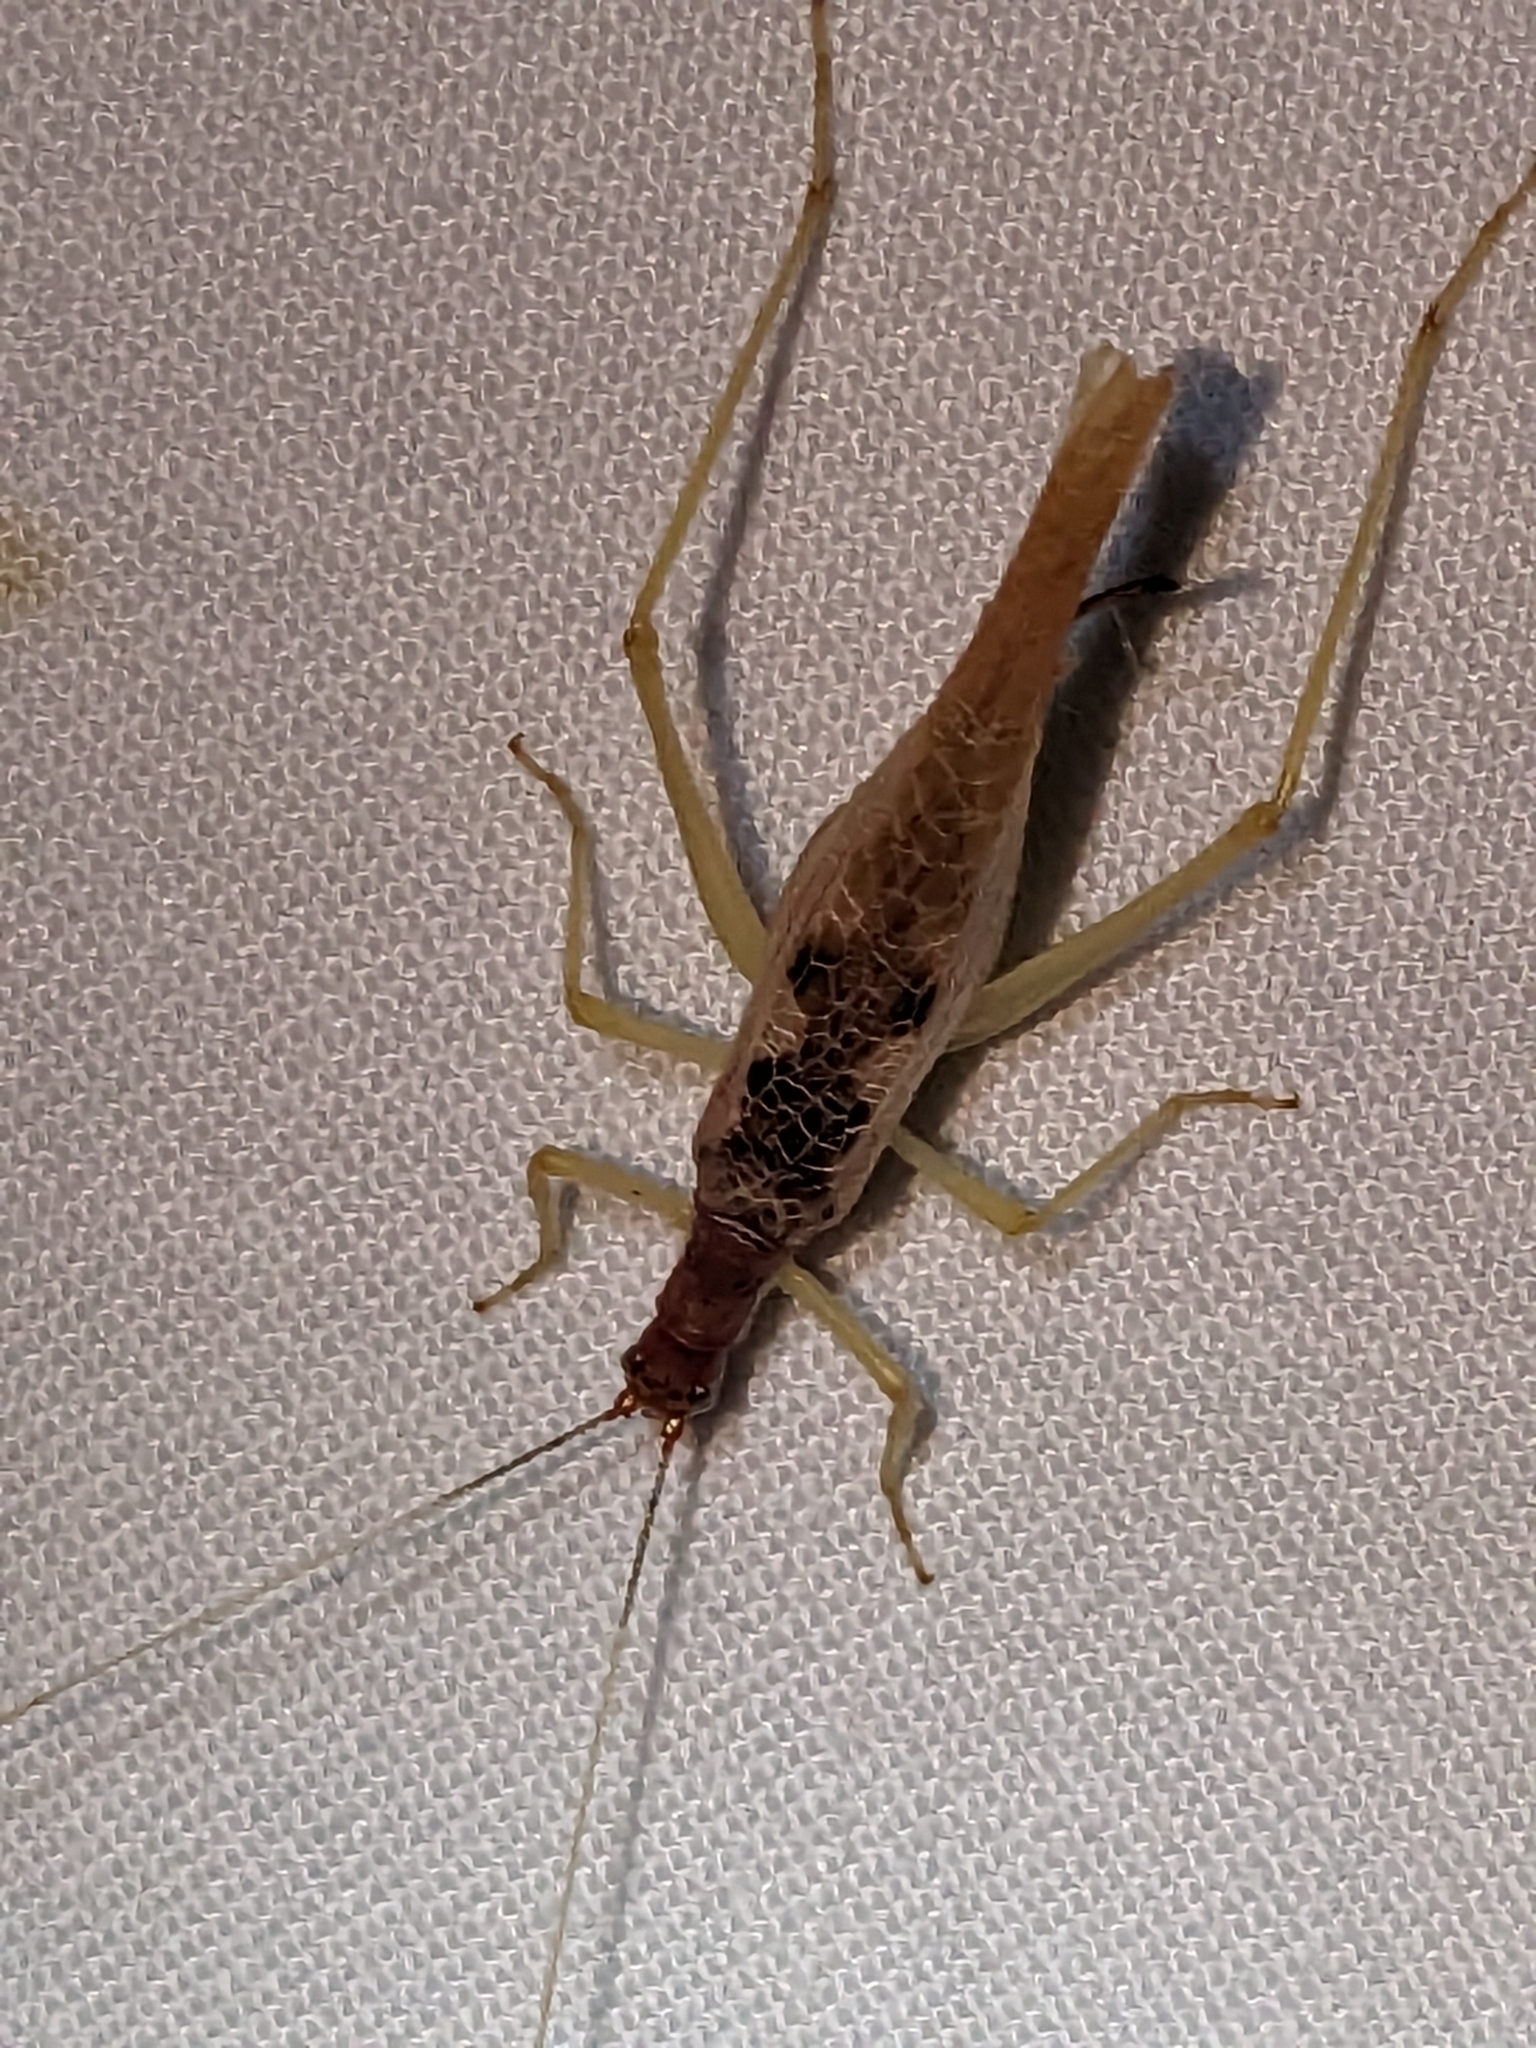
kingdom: Animalia
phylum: Arthropoda
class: Insecta
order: Orthoptera
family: Gryllidae
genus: Neoxabea
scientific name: Neoxabea bipunctata
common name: Two-spotted tree cricket
